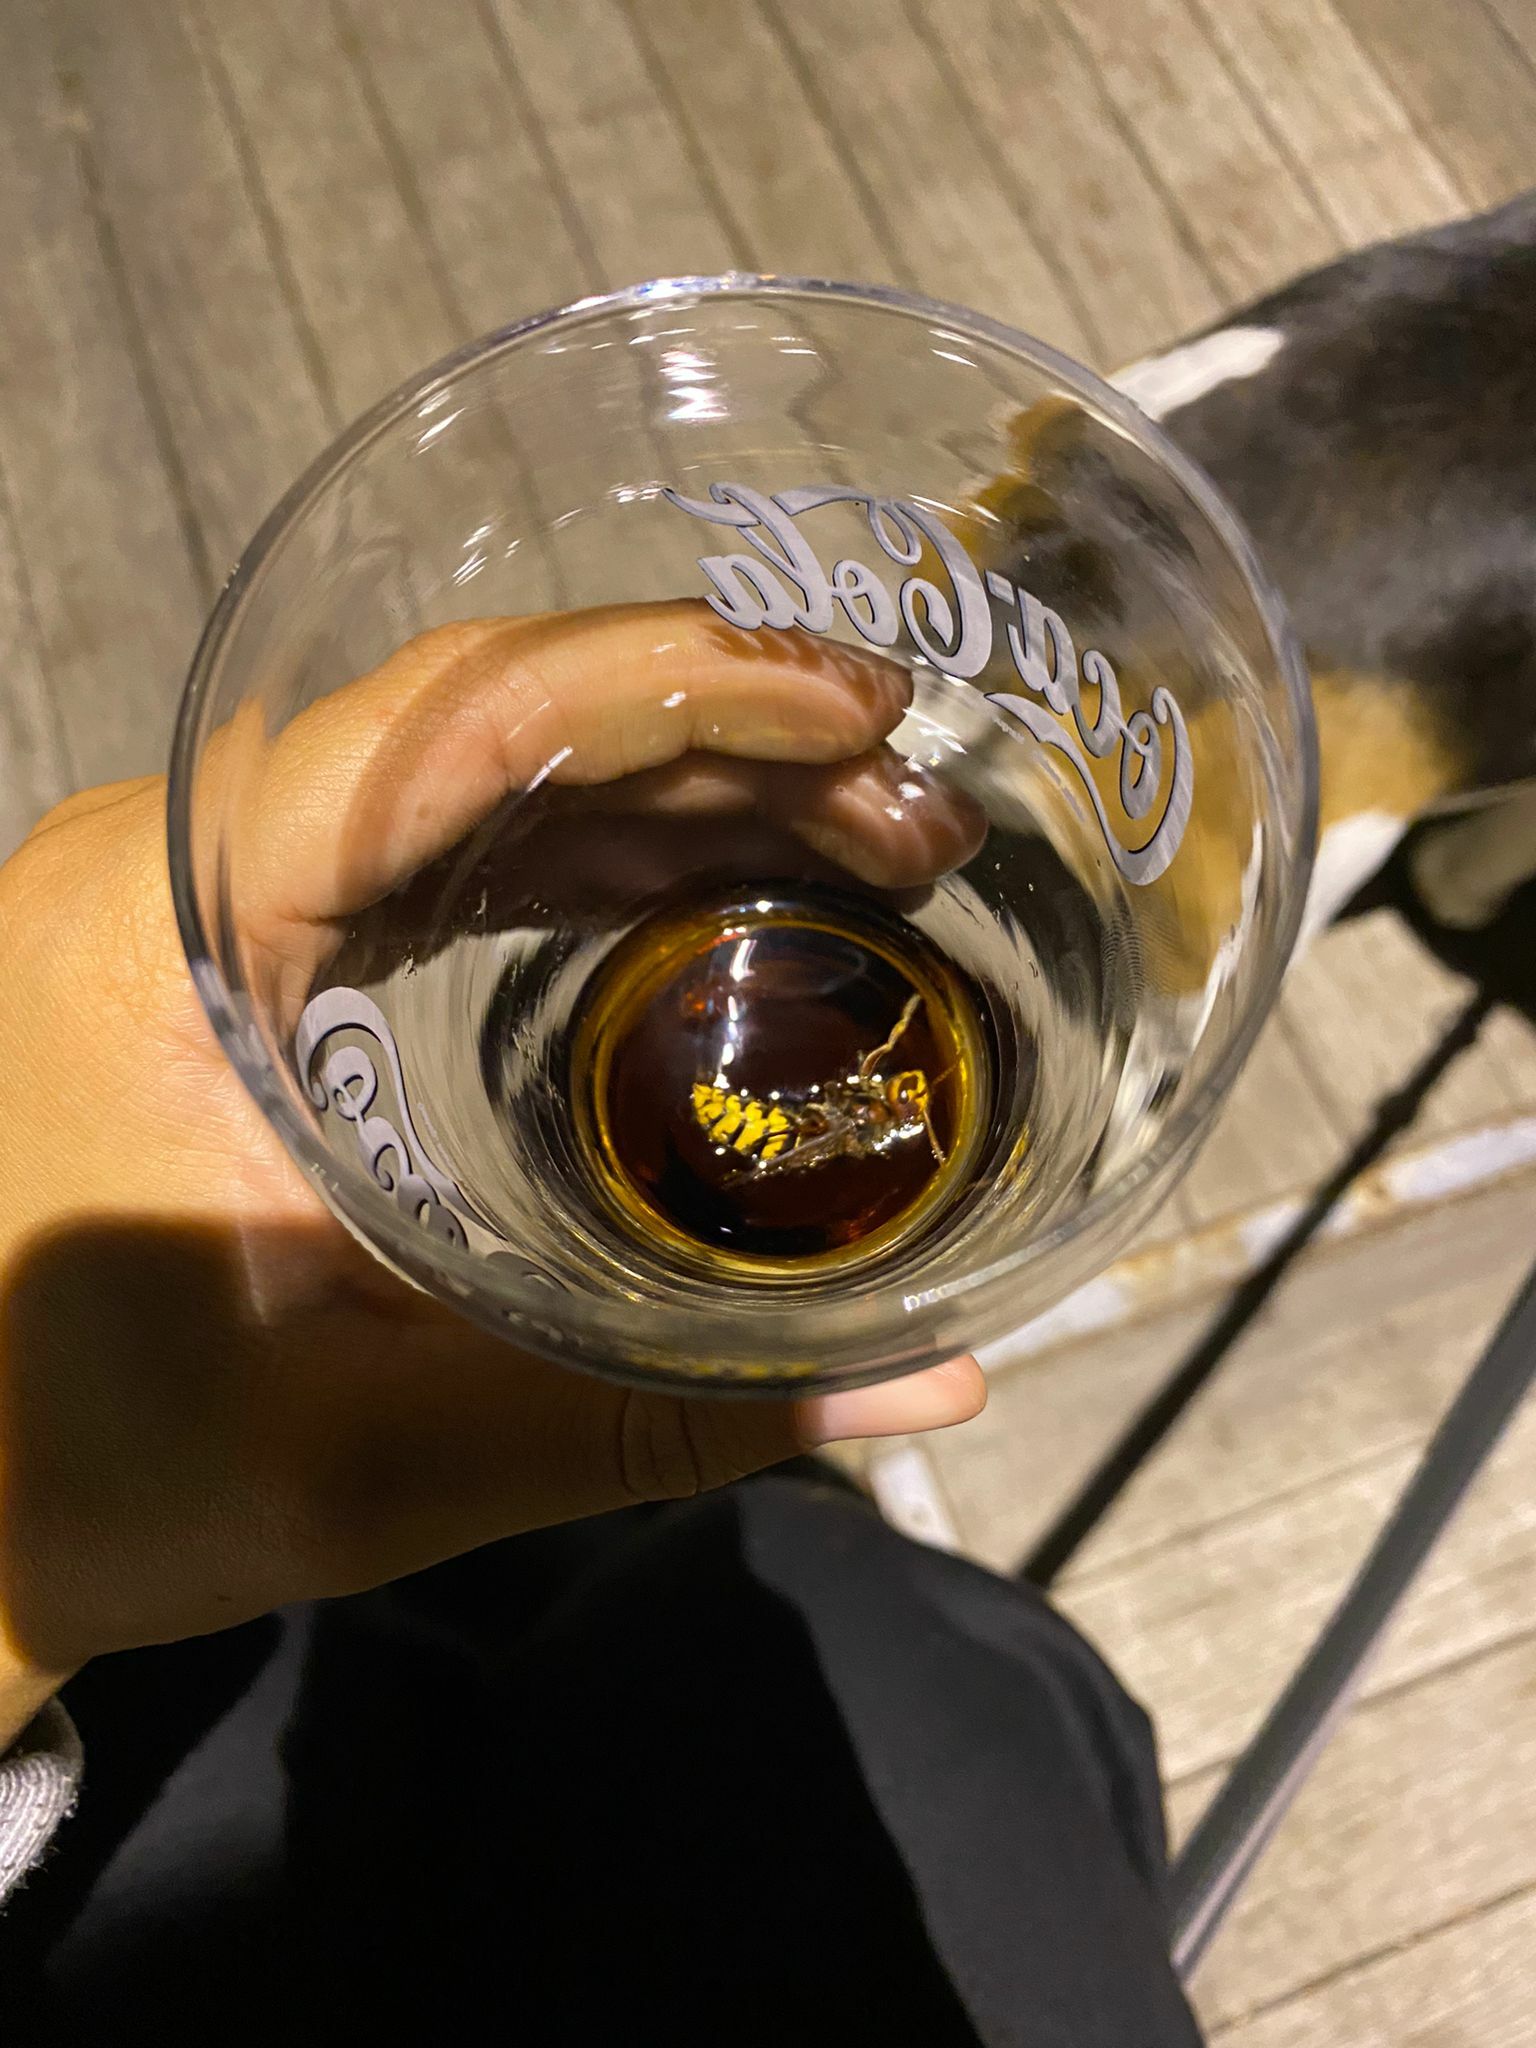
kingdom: Animalia
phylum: Arthropoda
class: Insecta
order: Hymenoptera
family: Vespidae
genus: Vespa
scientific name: Vespa crabro
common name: Hornet
